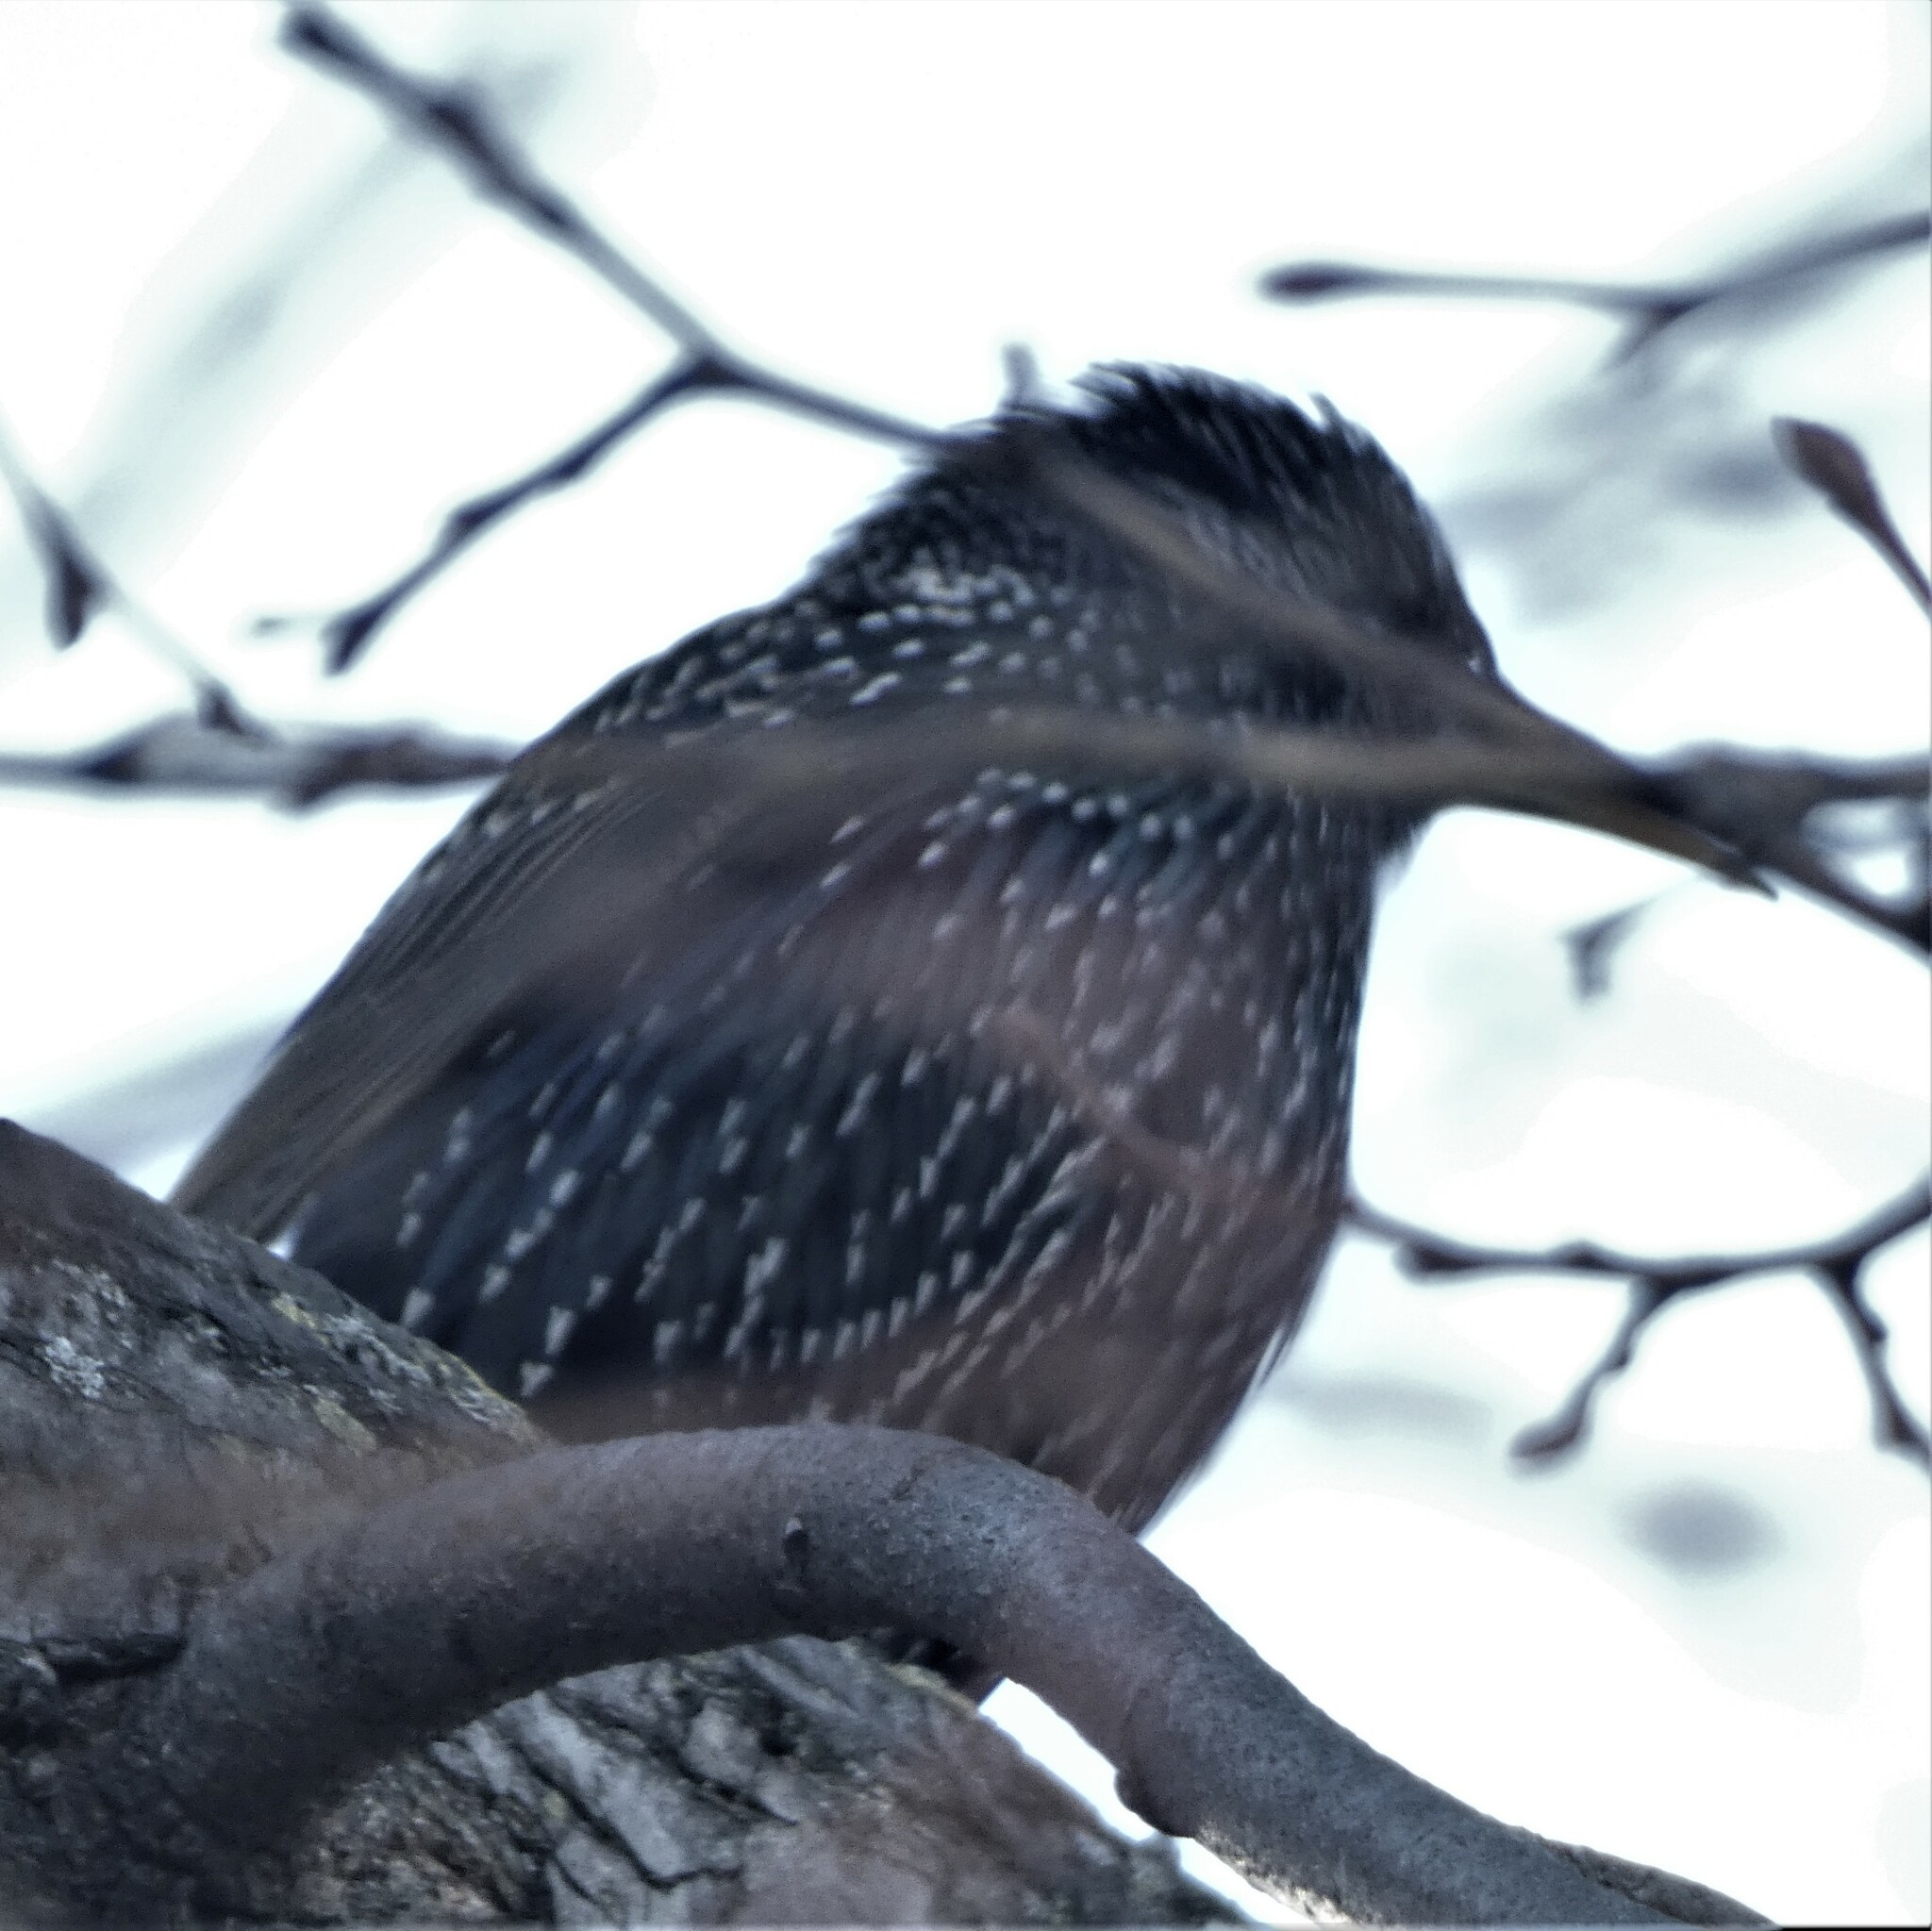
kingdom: Animalia
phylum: Chordata
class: Aves
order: Passeriformes
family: Sturnidae
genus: Sturnus
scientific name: Sturnus vulgaris
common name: Common starling
